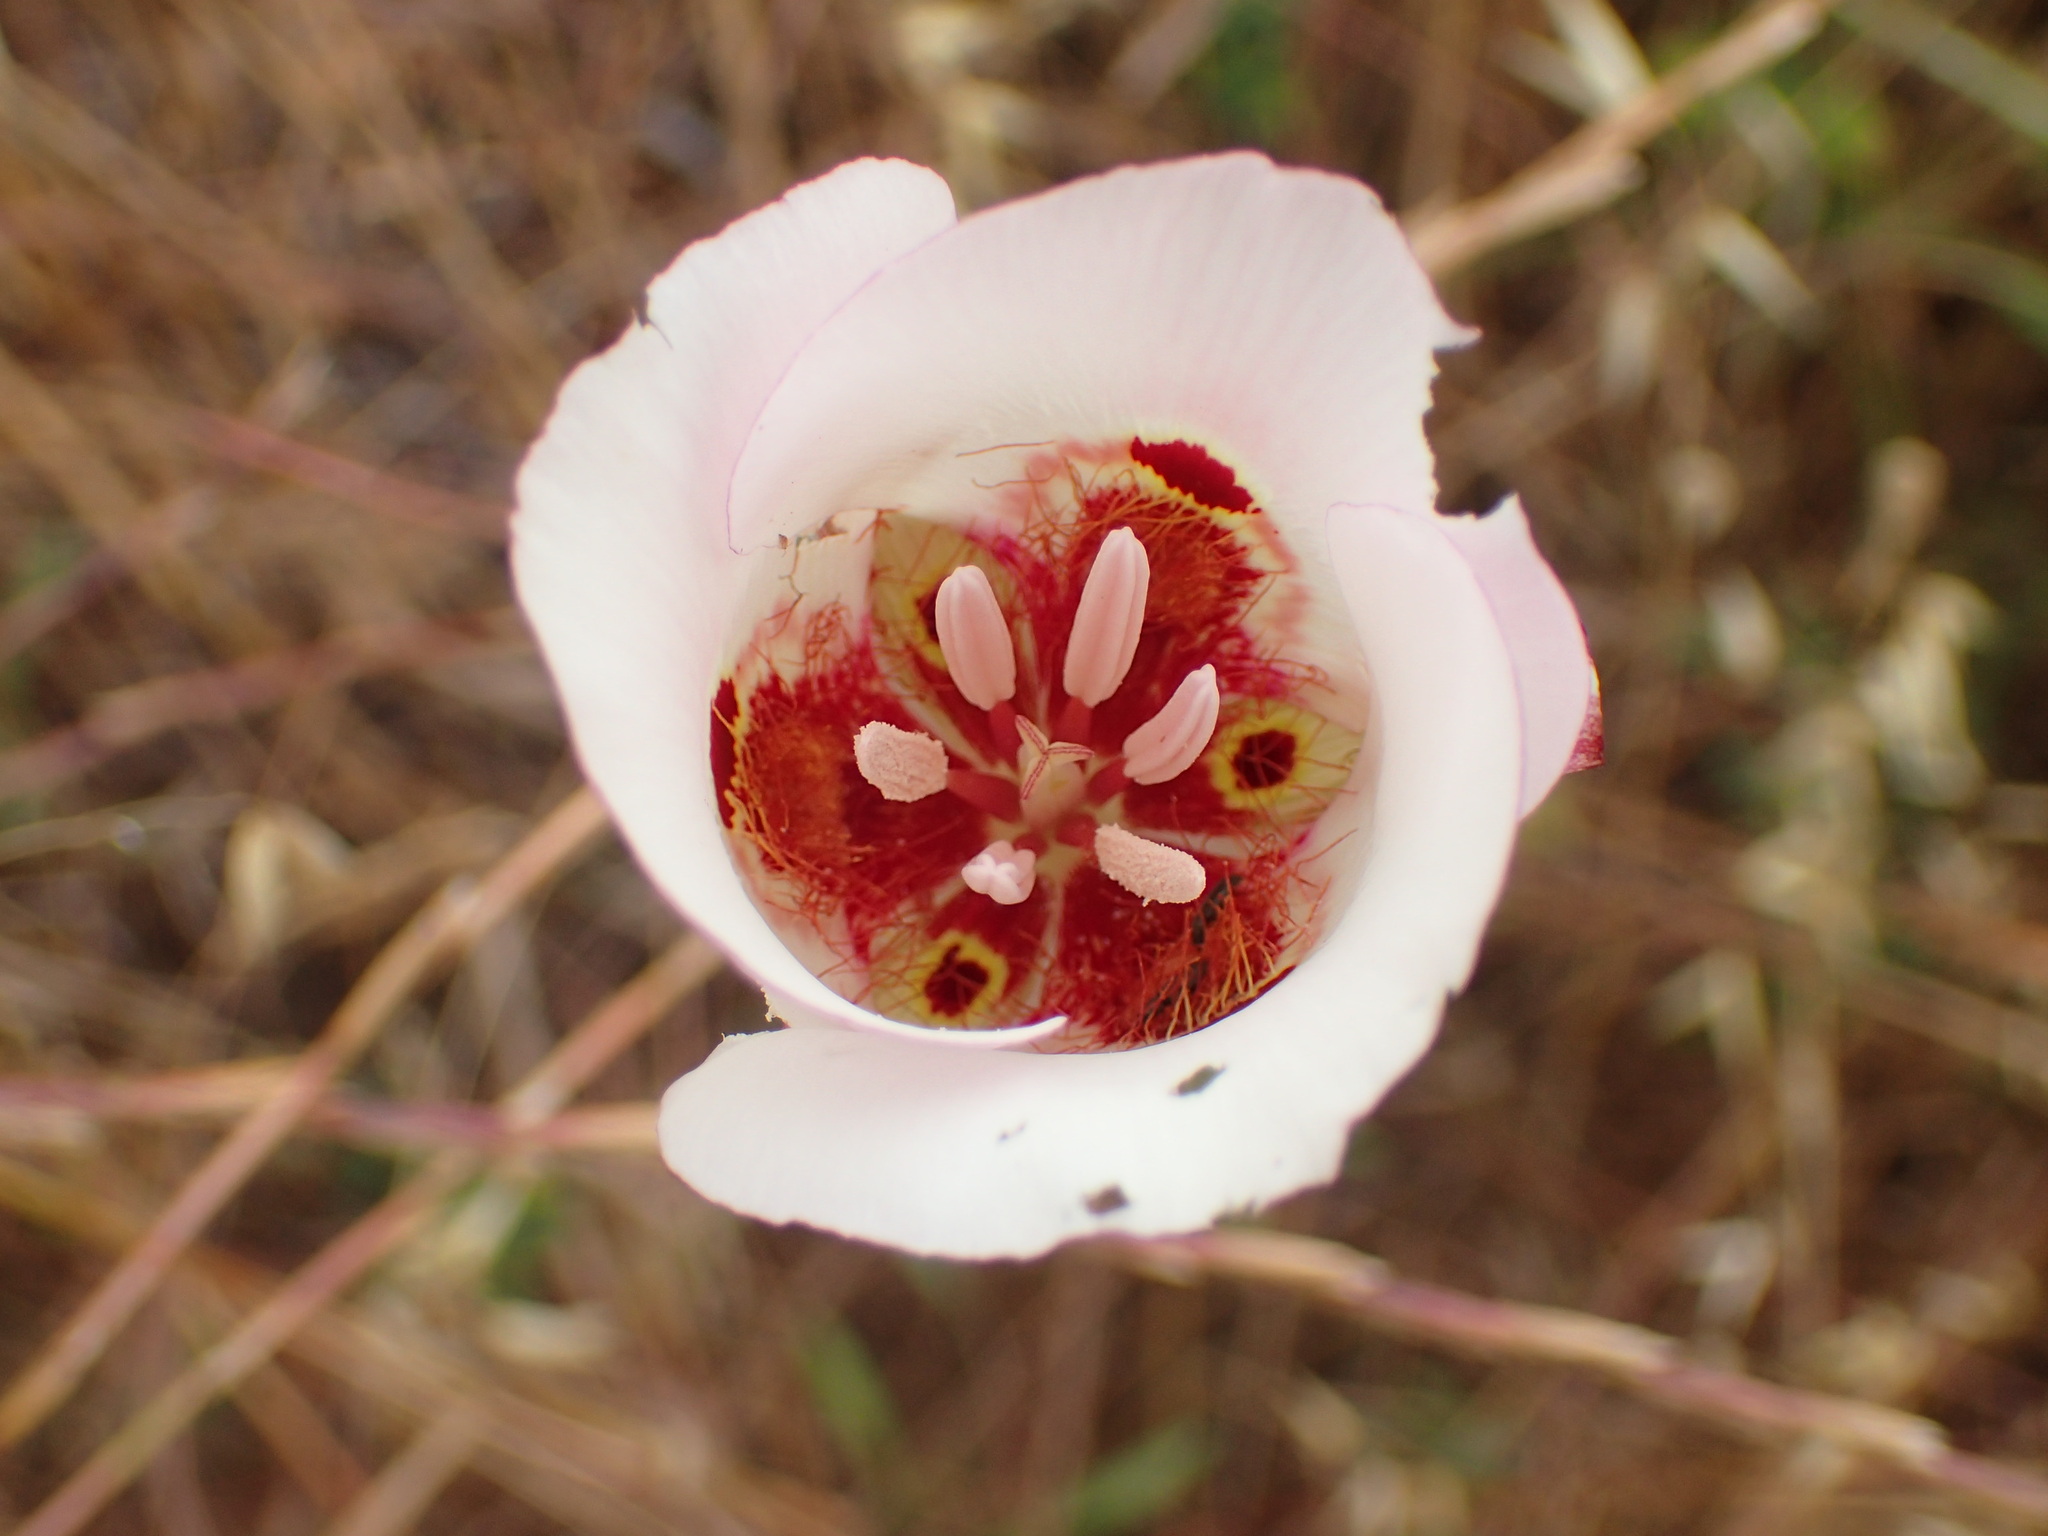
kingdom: Plantae
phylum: Tracheophyta
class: Liliopsida
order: Liliales
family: Liliaceae
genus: Calochortus
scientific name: Calochortus venustus
